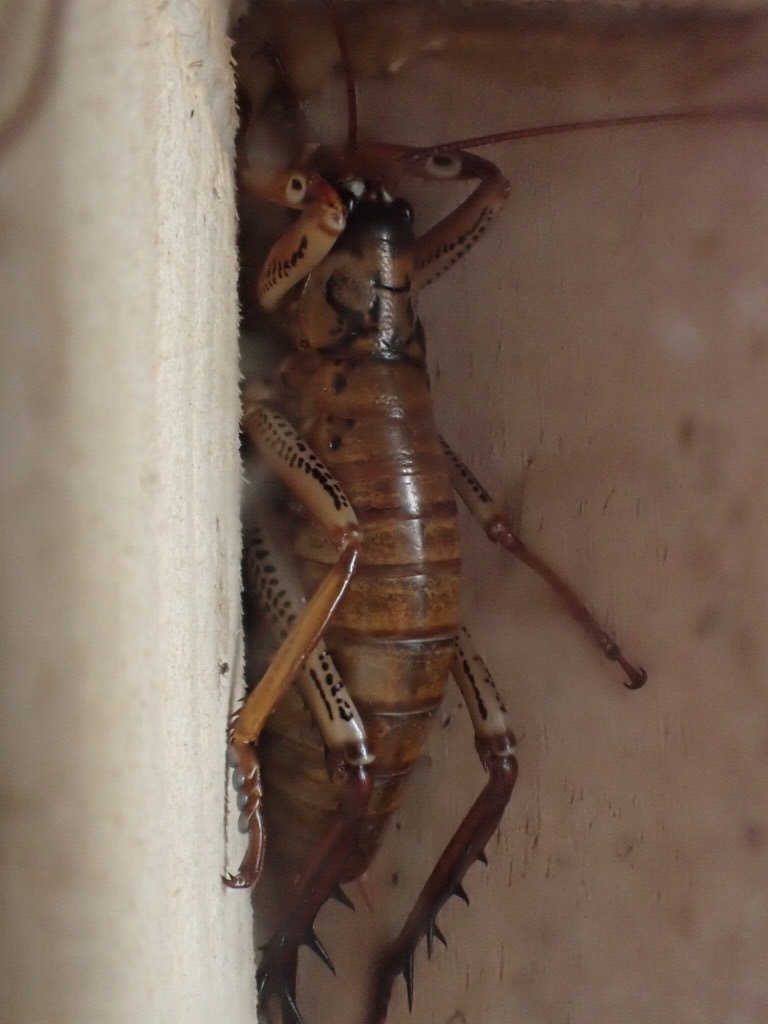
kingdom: Animalia
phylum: Arthropoda
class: Insecta
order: Orthoptera
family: Anostostomatidae
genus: Hemideina
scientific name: Hemideina thoracica
